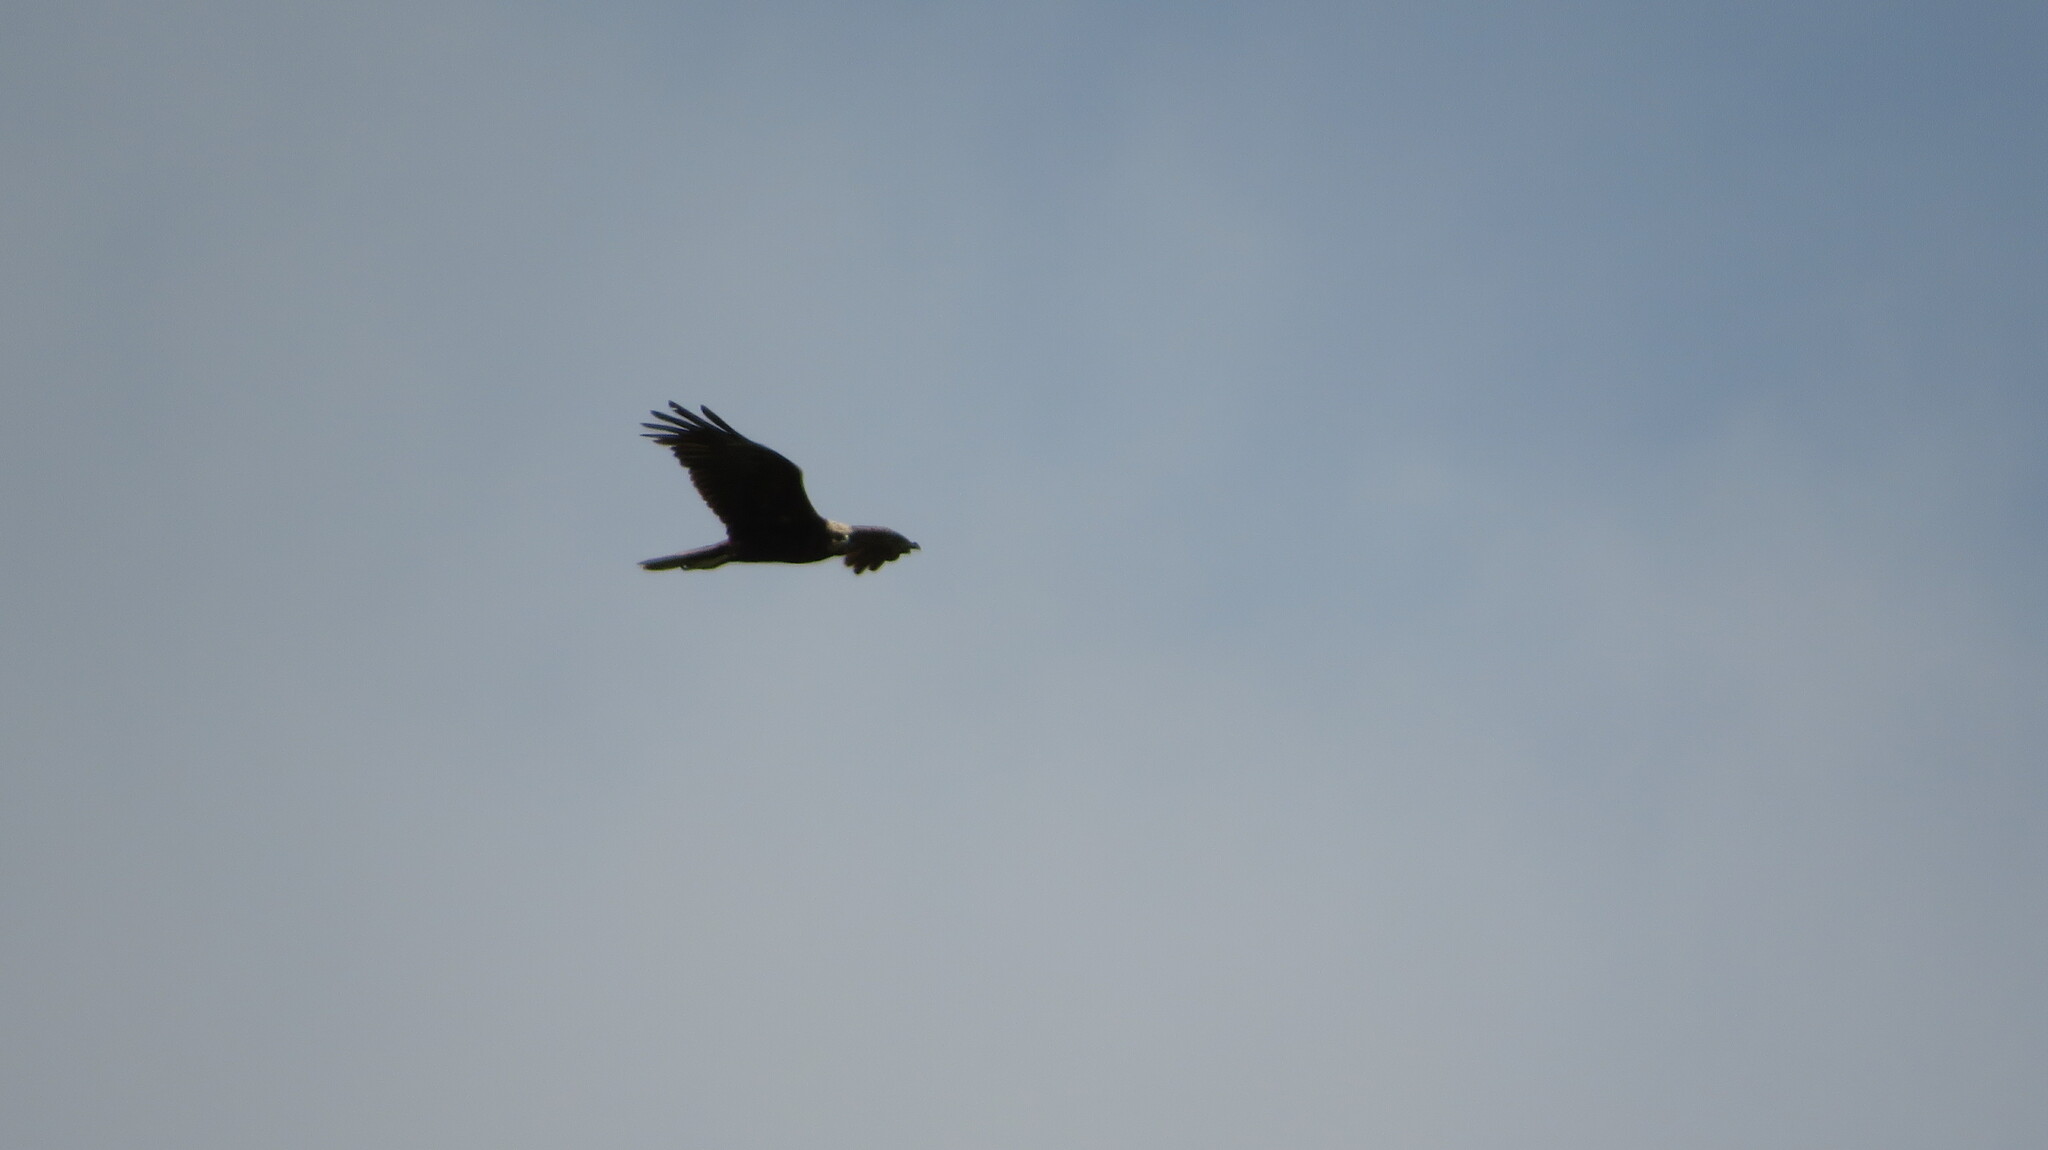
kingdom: Animalia
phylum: Chordata
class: Aves
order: Accipitriformes
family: Accipitridae
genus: Circus
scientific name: Circus aeruginosus
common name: Western marsh harrier
